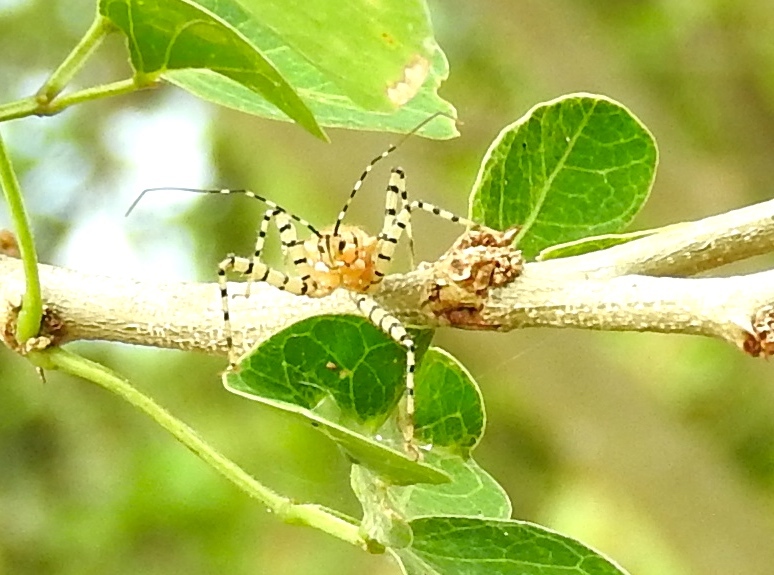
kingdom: Animalia
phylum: Arthropoda
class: Insecta
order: Hemiptera
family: Reduviidae
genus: Pselliopus
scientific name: Pselliopus
